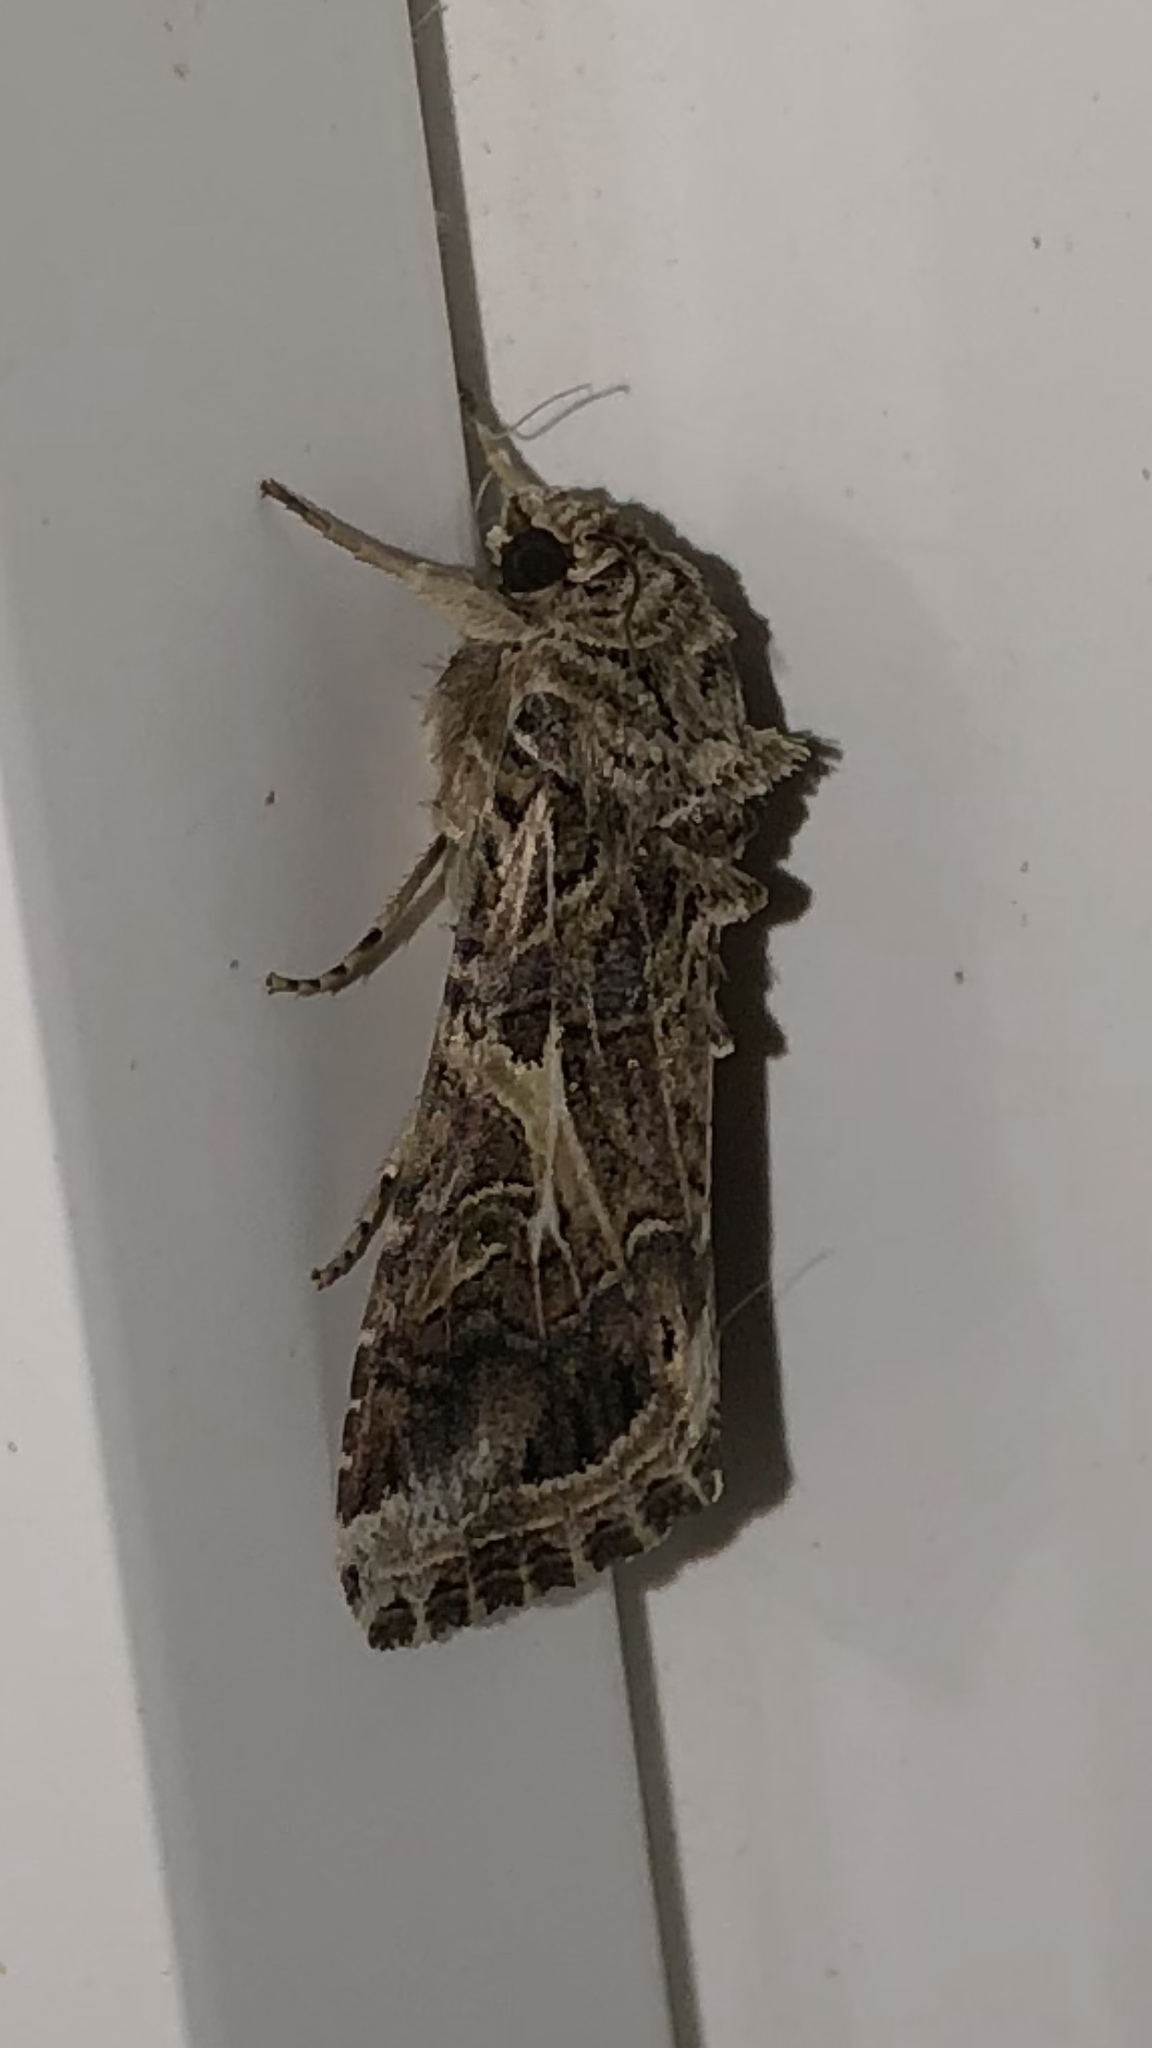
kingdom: Animalia
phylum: Arthropoda
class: Insecta
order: Lepidoptera
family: Noctuidae
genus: Spodoptera
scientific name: Spodoptera ornithogalli
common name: Yellow-striped armyworm
